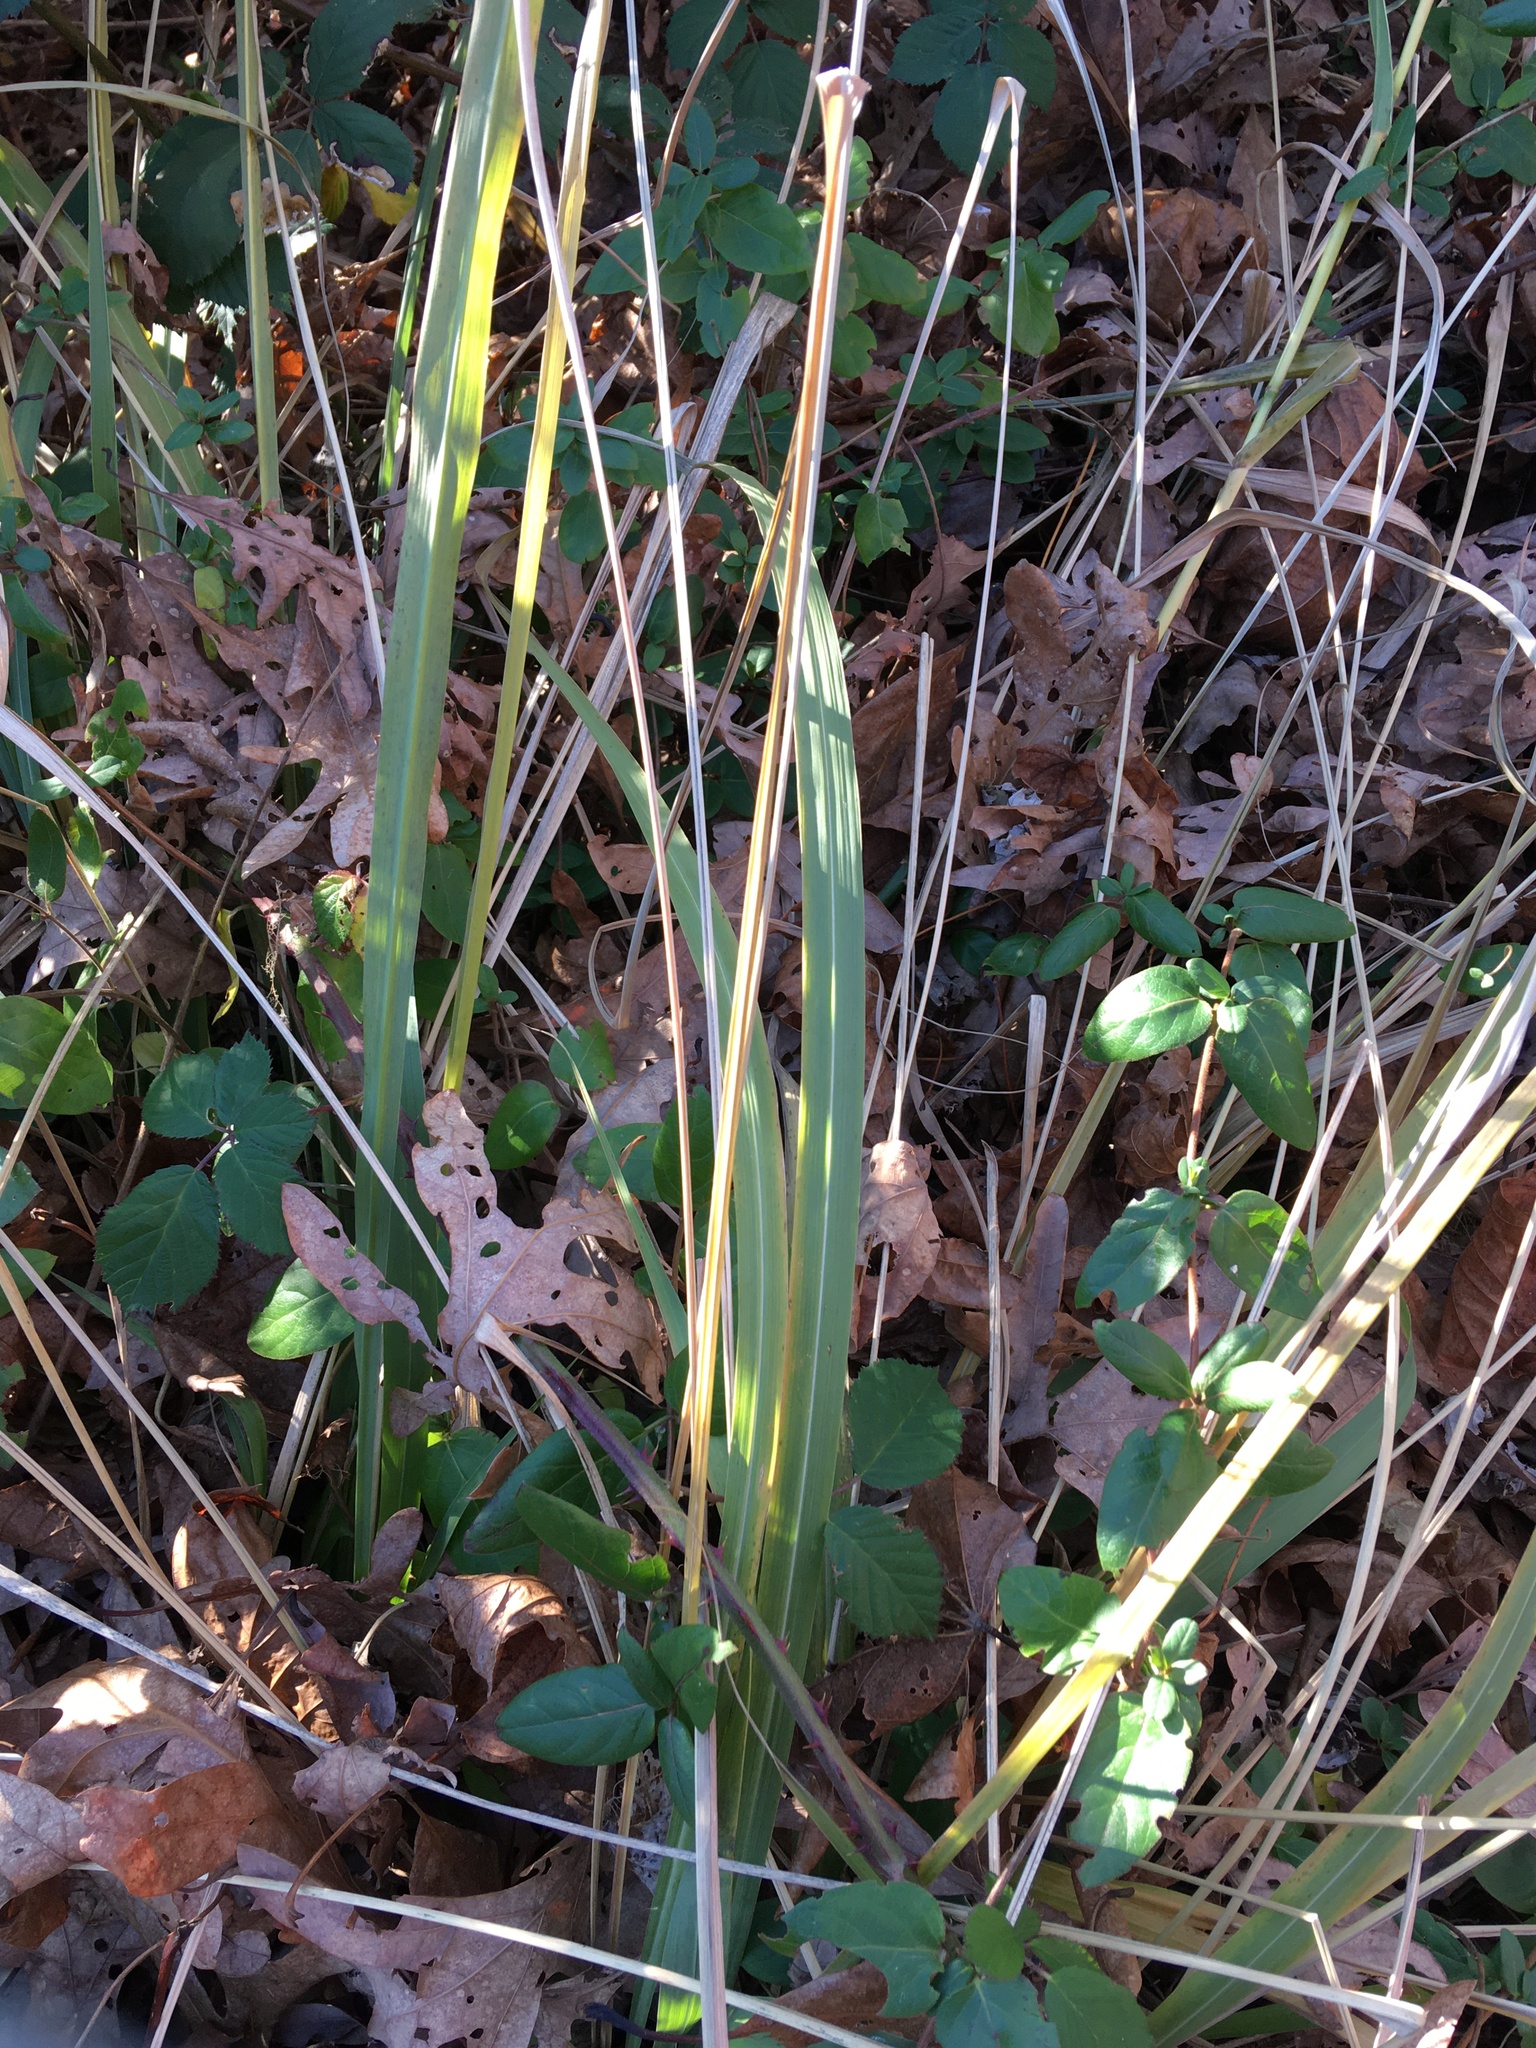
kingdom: Plantae
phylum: Tracheophyta
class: Liliopsida
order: Poales
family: Poaceae
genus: Tripsacum
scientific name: Tripsacum dactyloides
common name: Buffalo-grass
